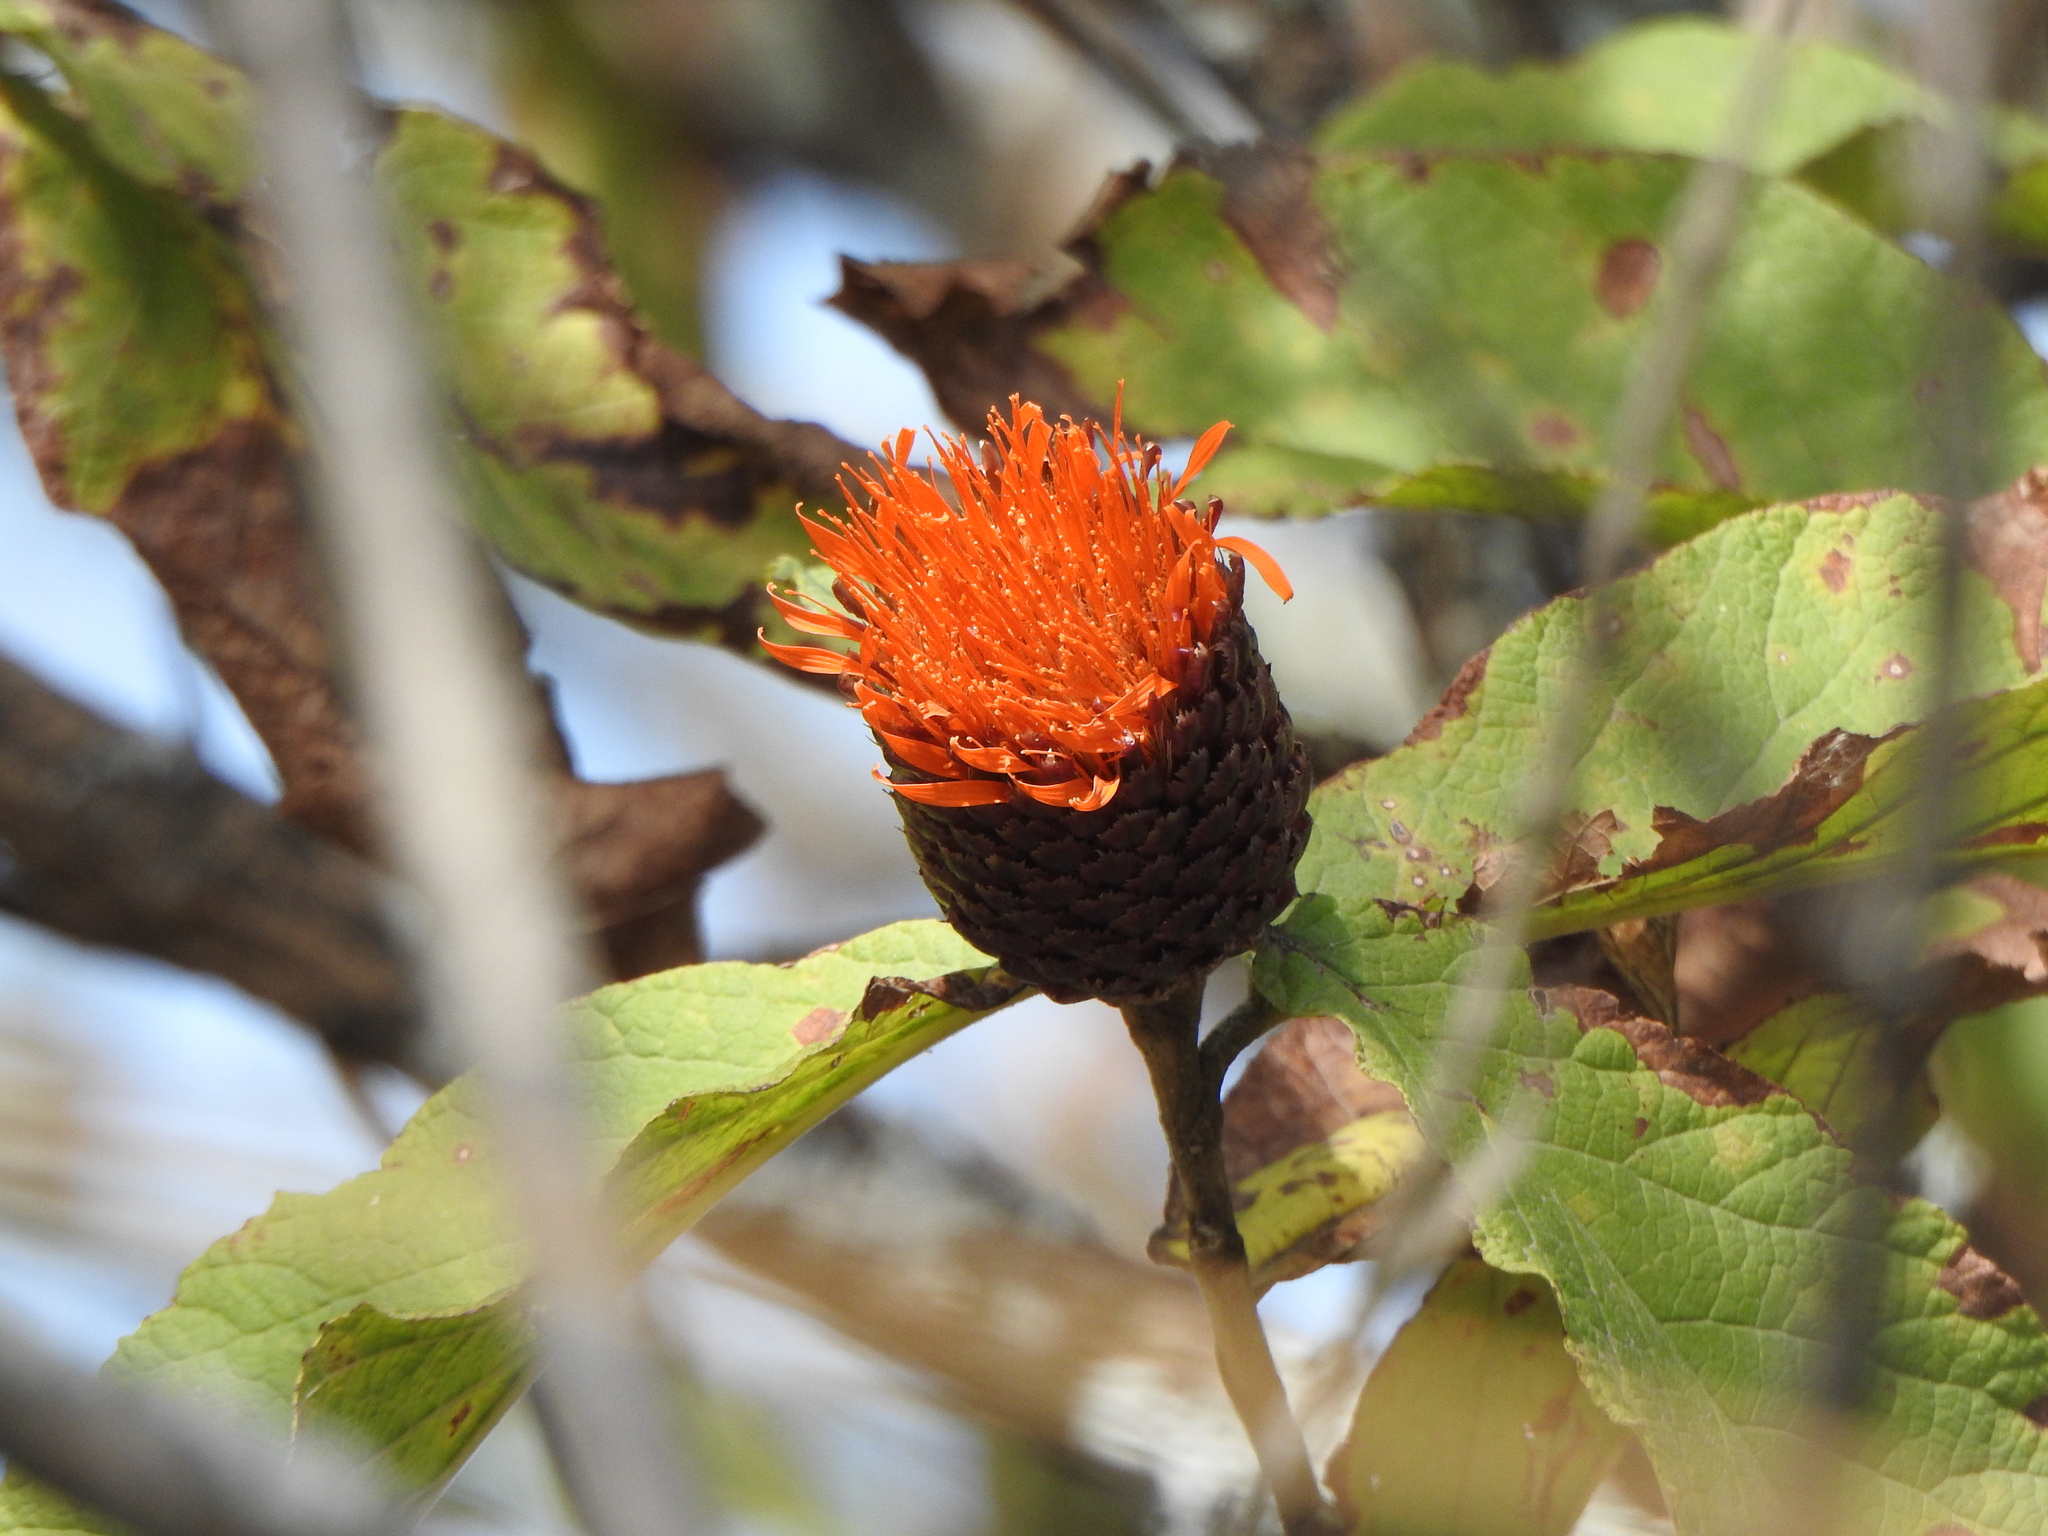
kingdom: Plantae
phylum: Tracheophyta
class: Magnoliopsida
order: Asterales
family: Asteraceae
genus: Cnicothamnus
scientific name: Cnicothamnus lorentzii
